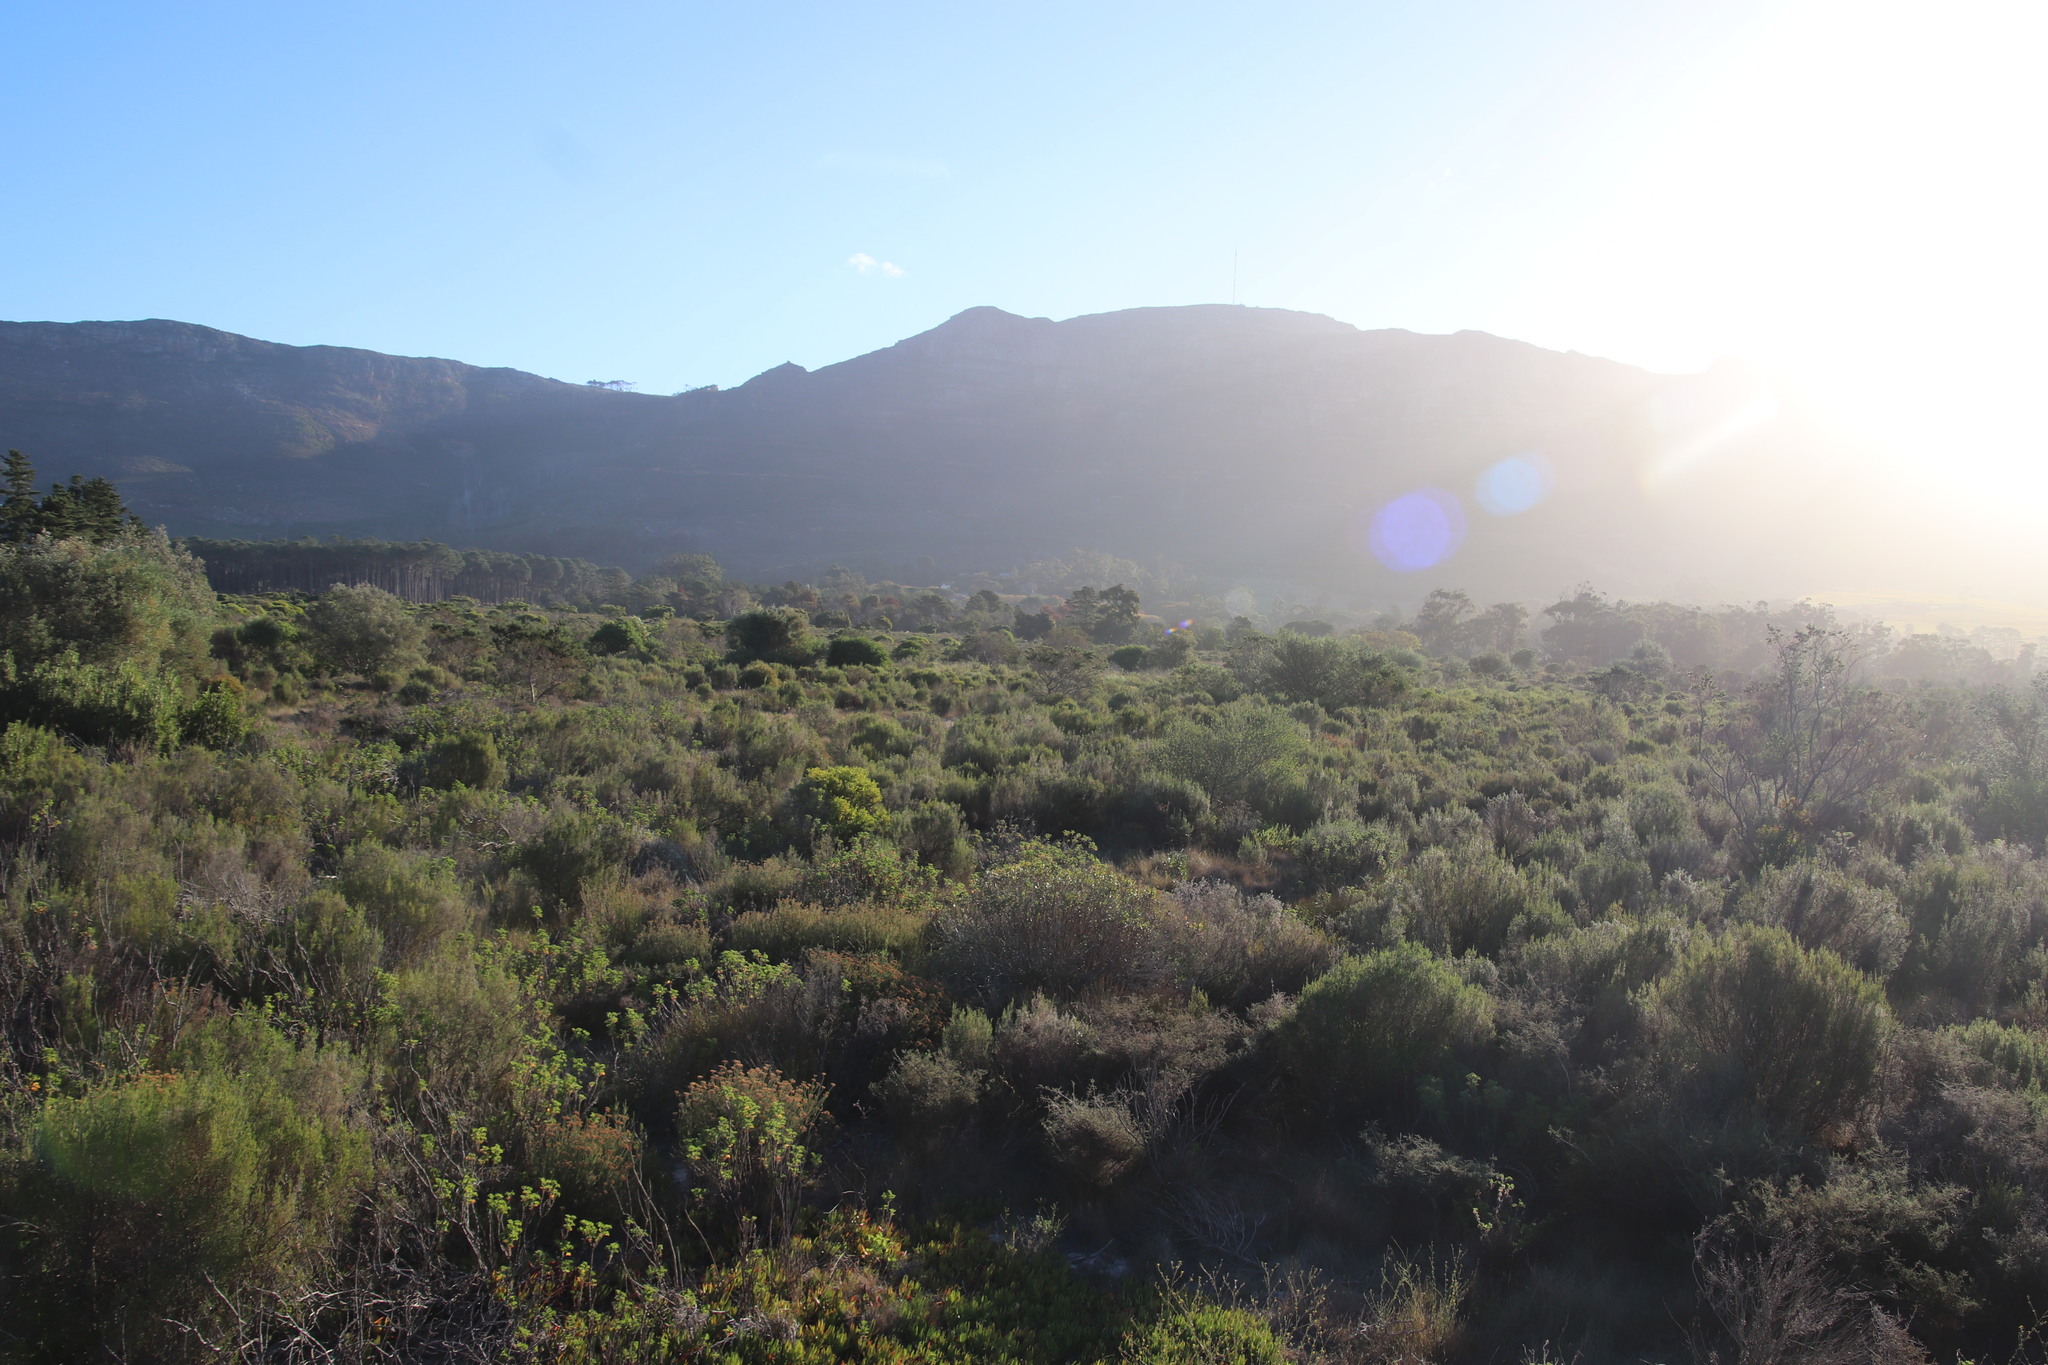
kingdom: Plantae
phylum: Tracheophyta
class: Magnoliopsida
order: Asterales
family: Asteraceae
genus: Seriphium
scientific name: Seriphium cinereum
